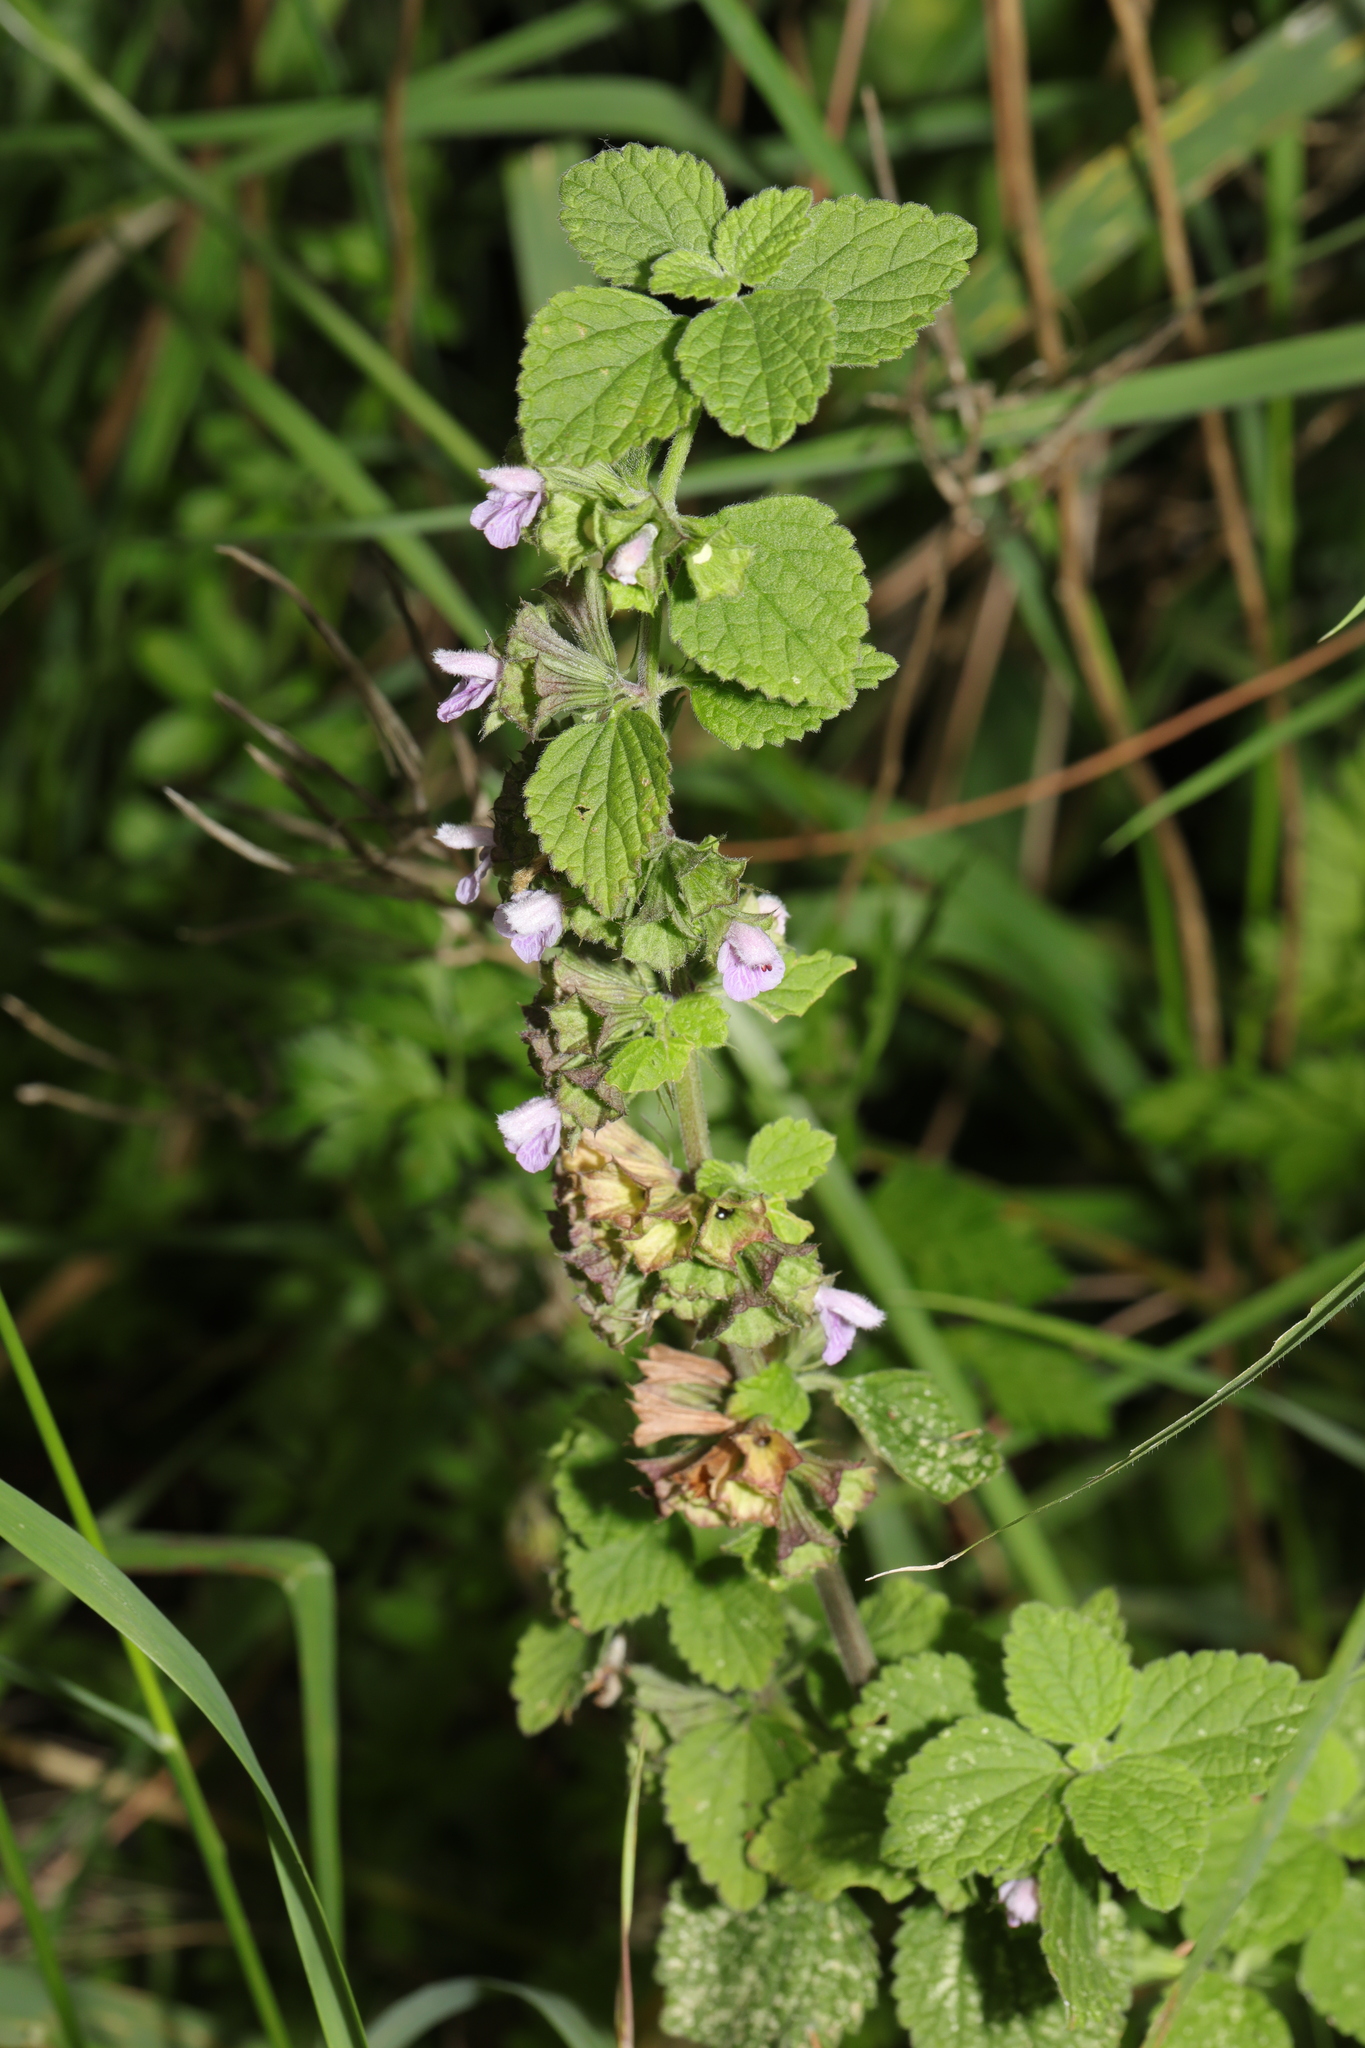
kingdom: Plantae
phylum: Tracheophyta
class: Magnoliopsida
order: Lamiales
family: Lamiaceae
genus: Ballota
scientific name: Ballota nigra
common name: Black horehound
